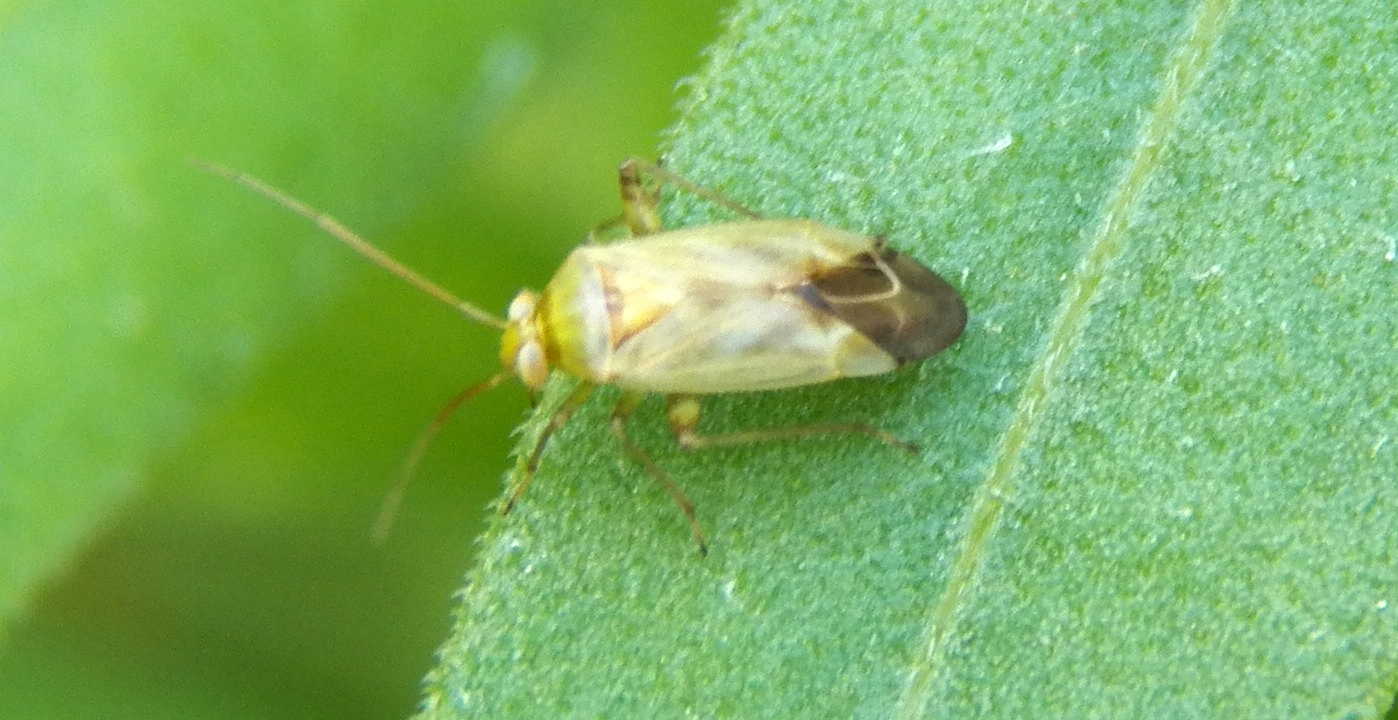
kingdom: Animalia
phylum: Arthropoda
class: Insecta
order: Hemiptera
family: Miridae
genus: Taylorilygus
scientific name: Taylorilygus apicalis
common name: Plant bug
